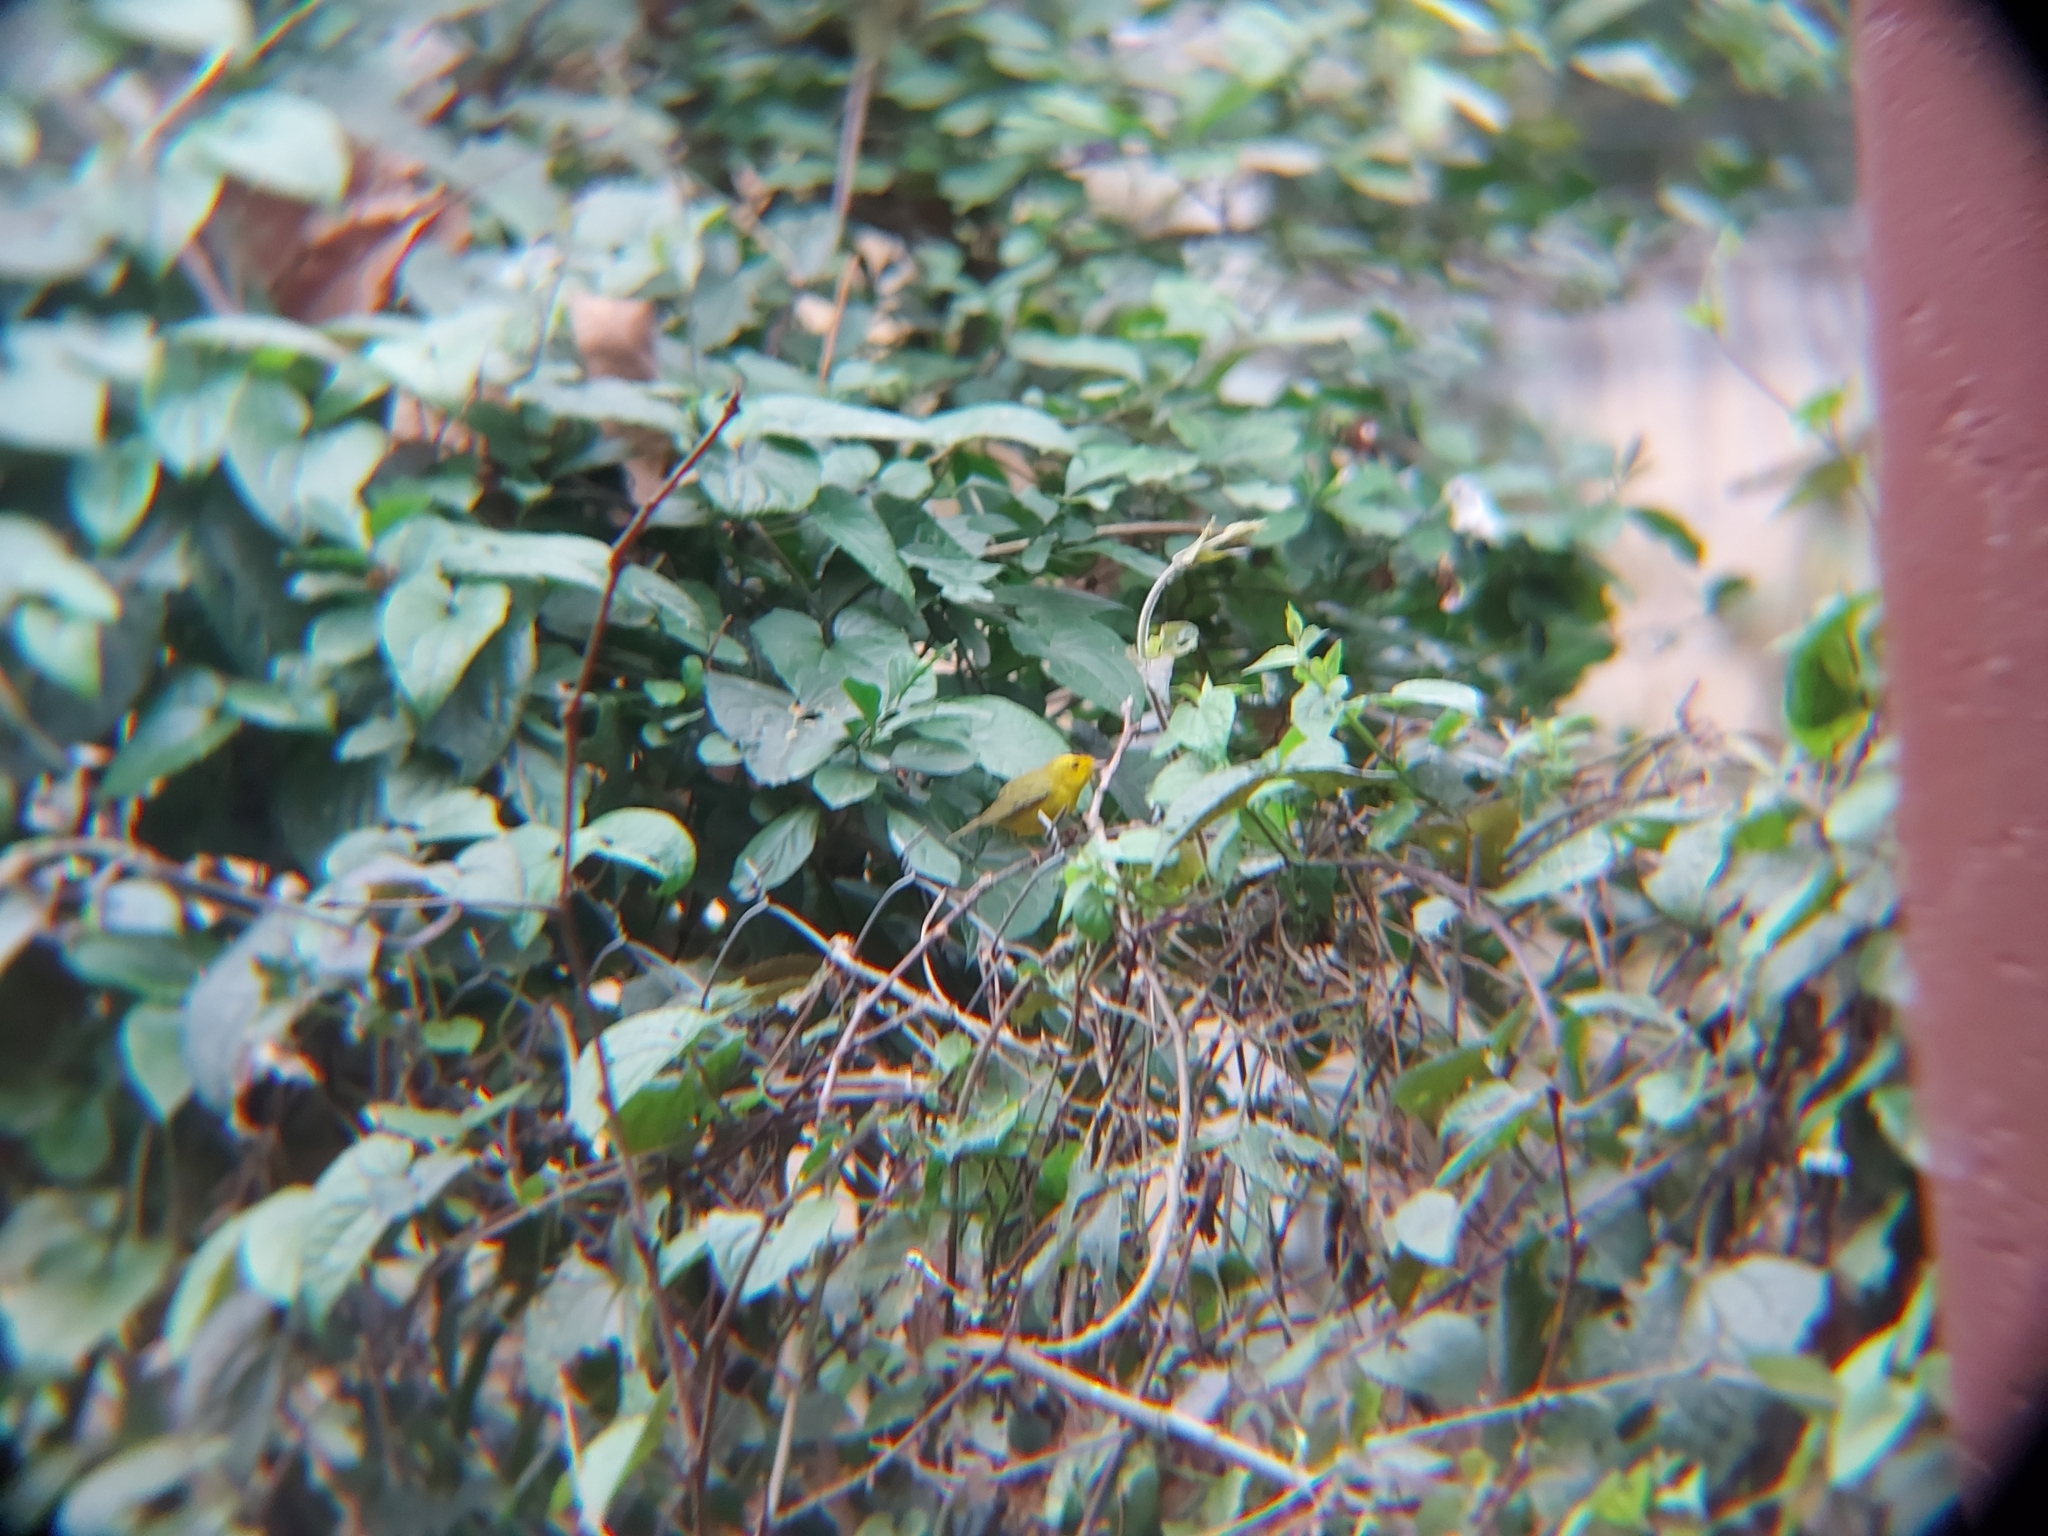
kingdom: Animalia
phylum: Chordata
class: Aves
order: Passeriformes
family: Parulidae
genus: Cardellina
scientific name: Cardellina pusilla
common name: Wilson's warbler
